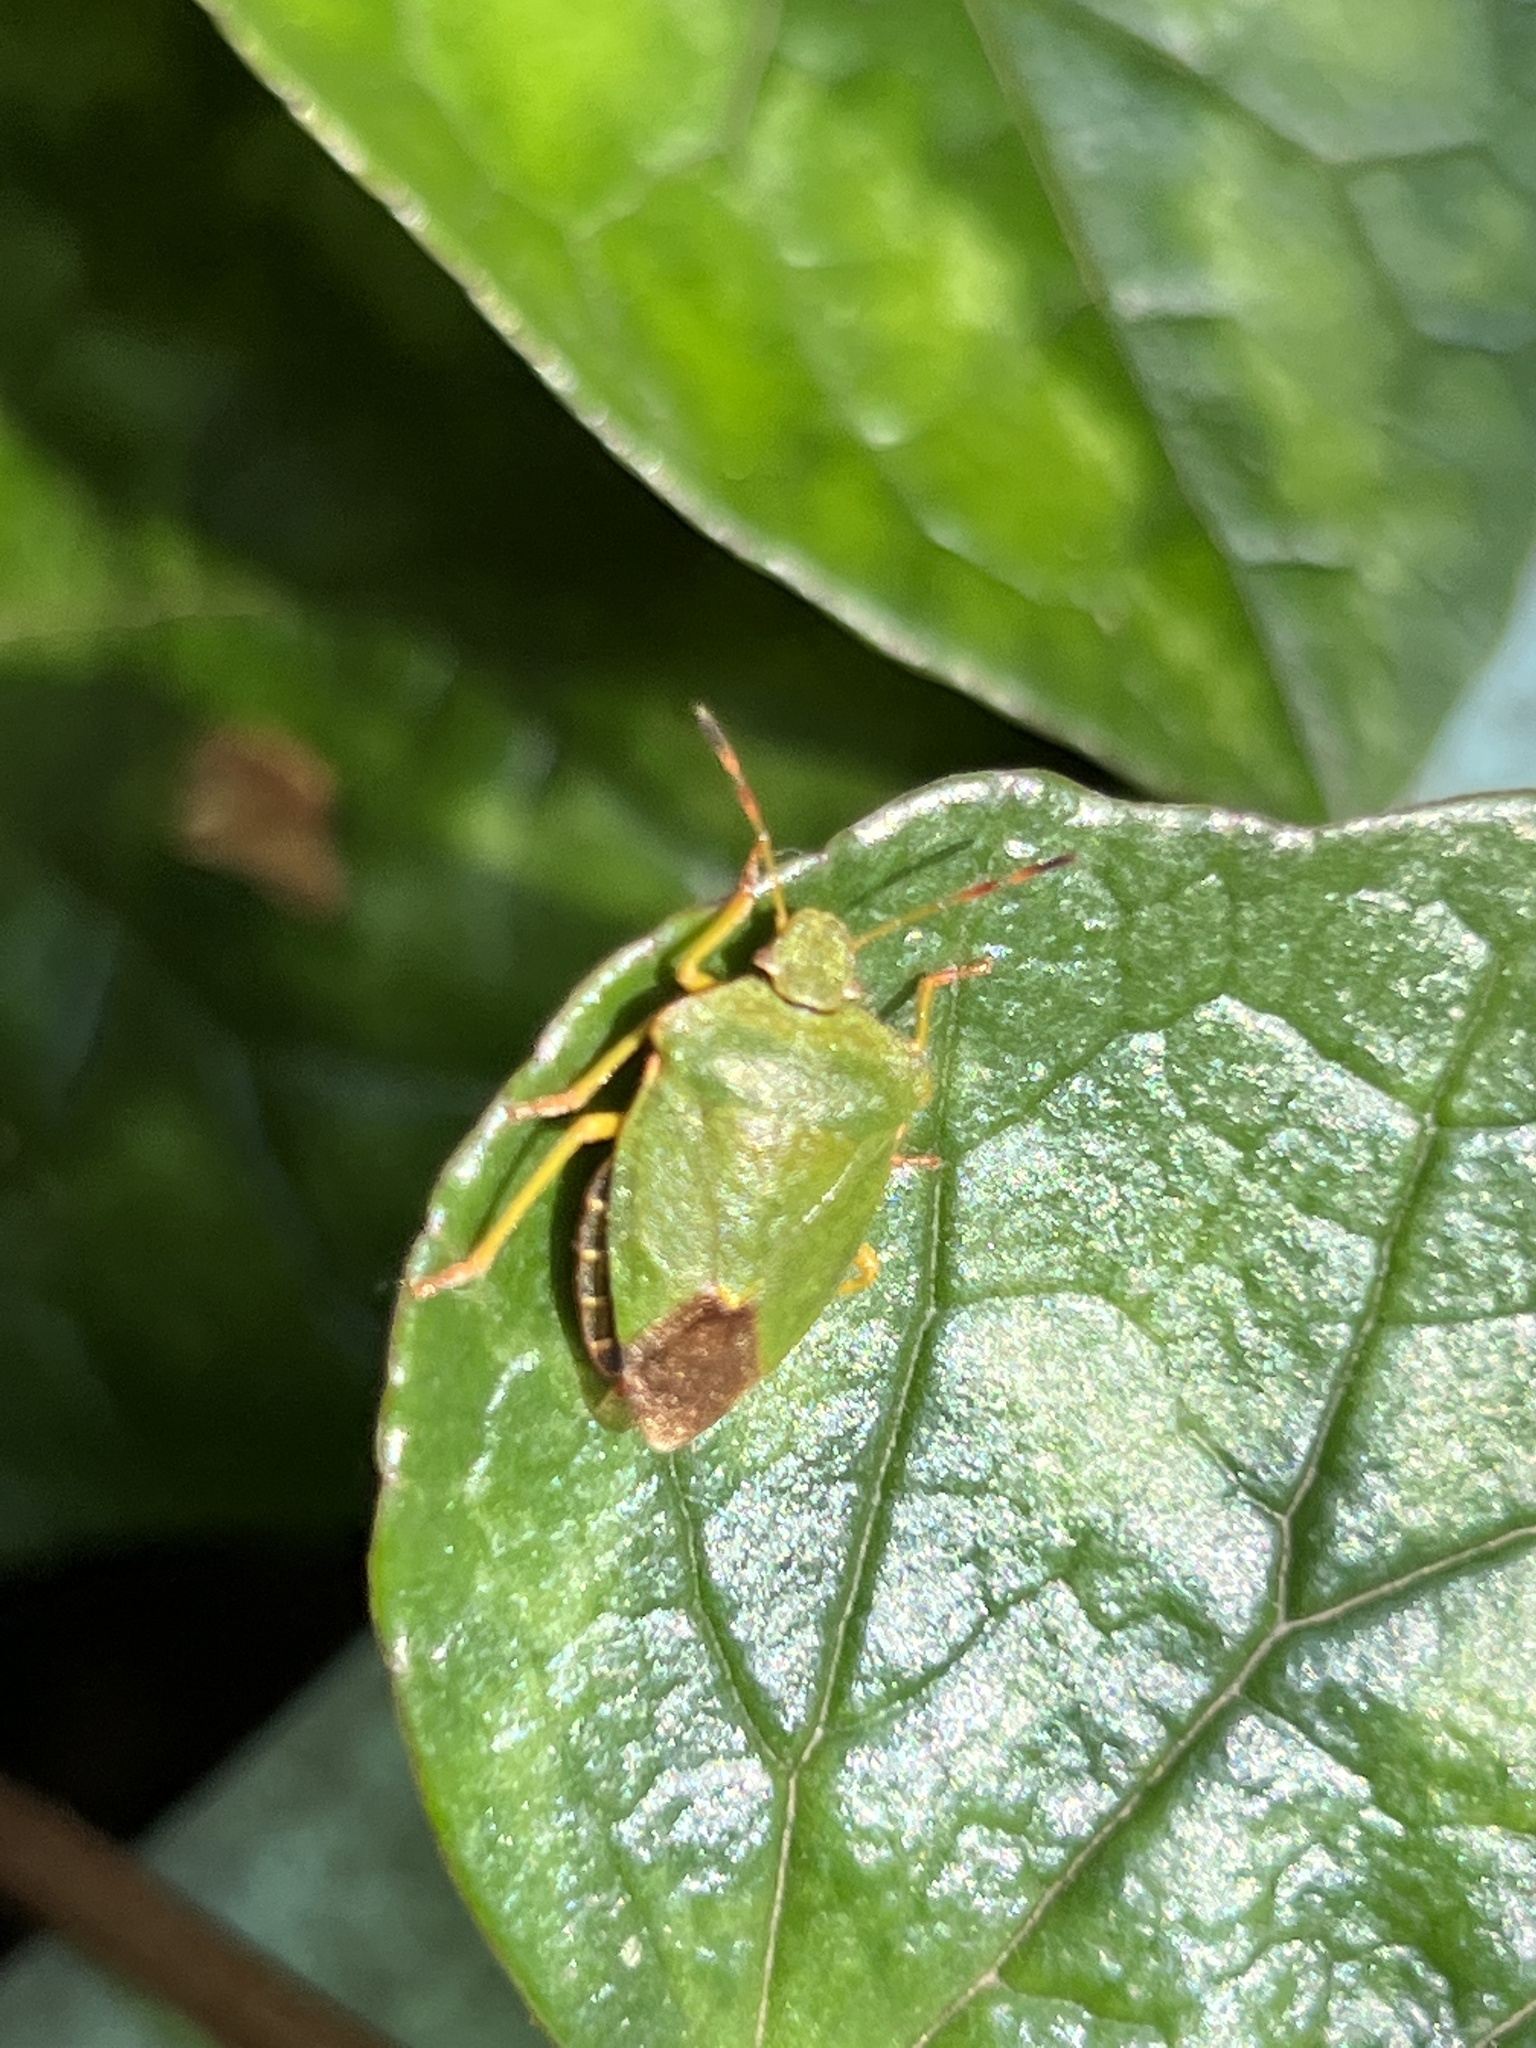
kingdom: Animalia
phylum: Arthropoda
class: Insecta
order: Hemiptera
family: Pentatomidae
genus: Palomena
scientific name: Palomena prasina
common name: Green shieldbug
